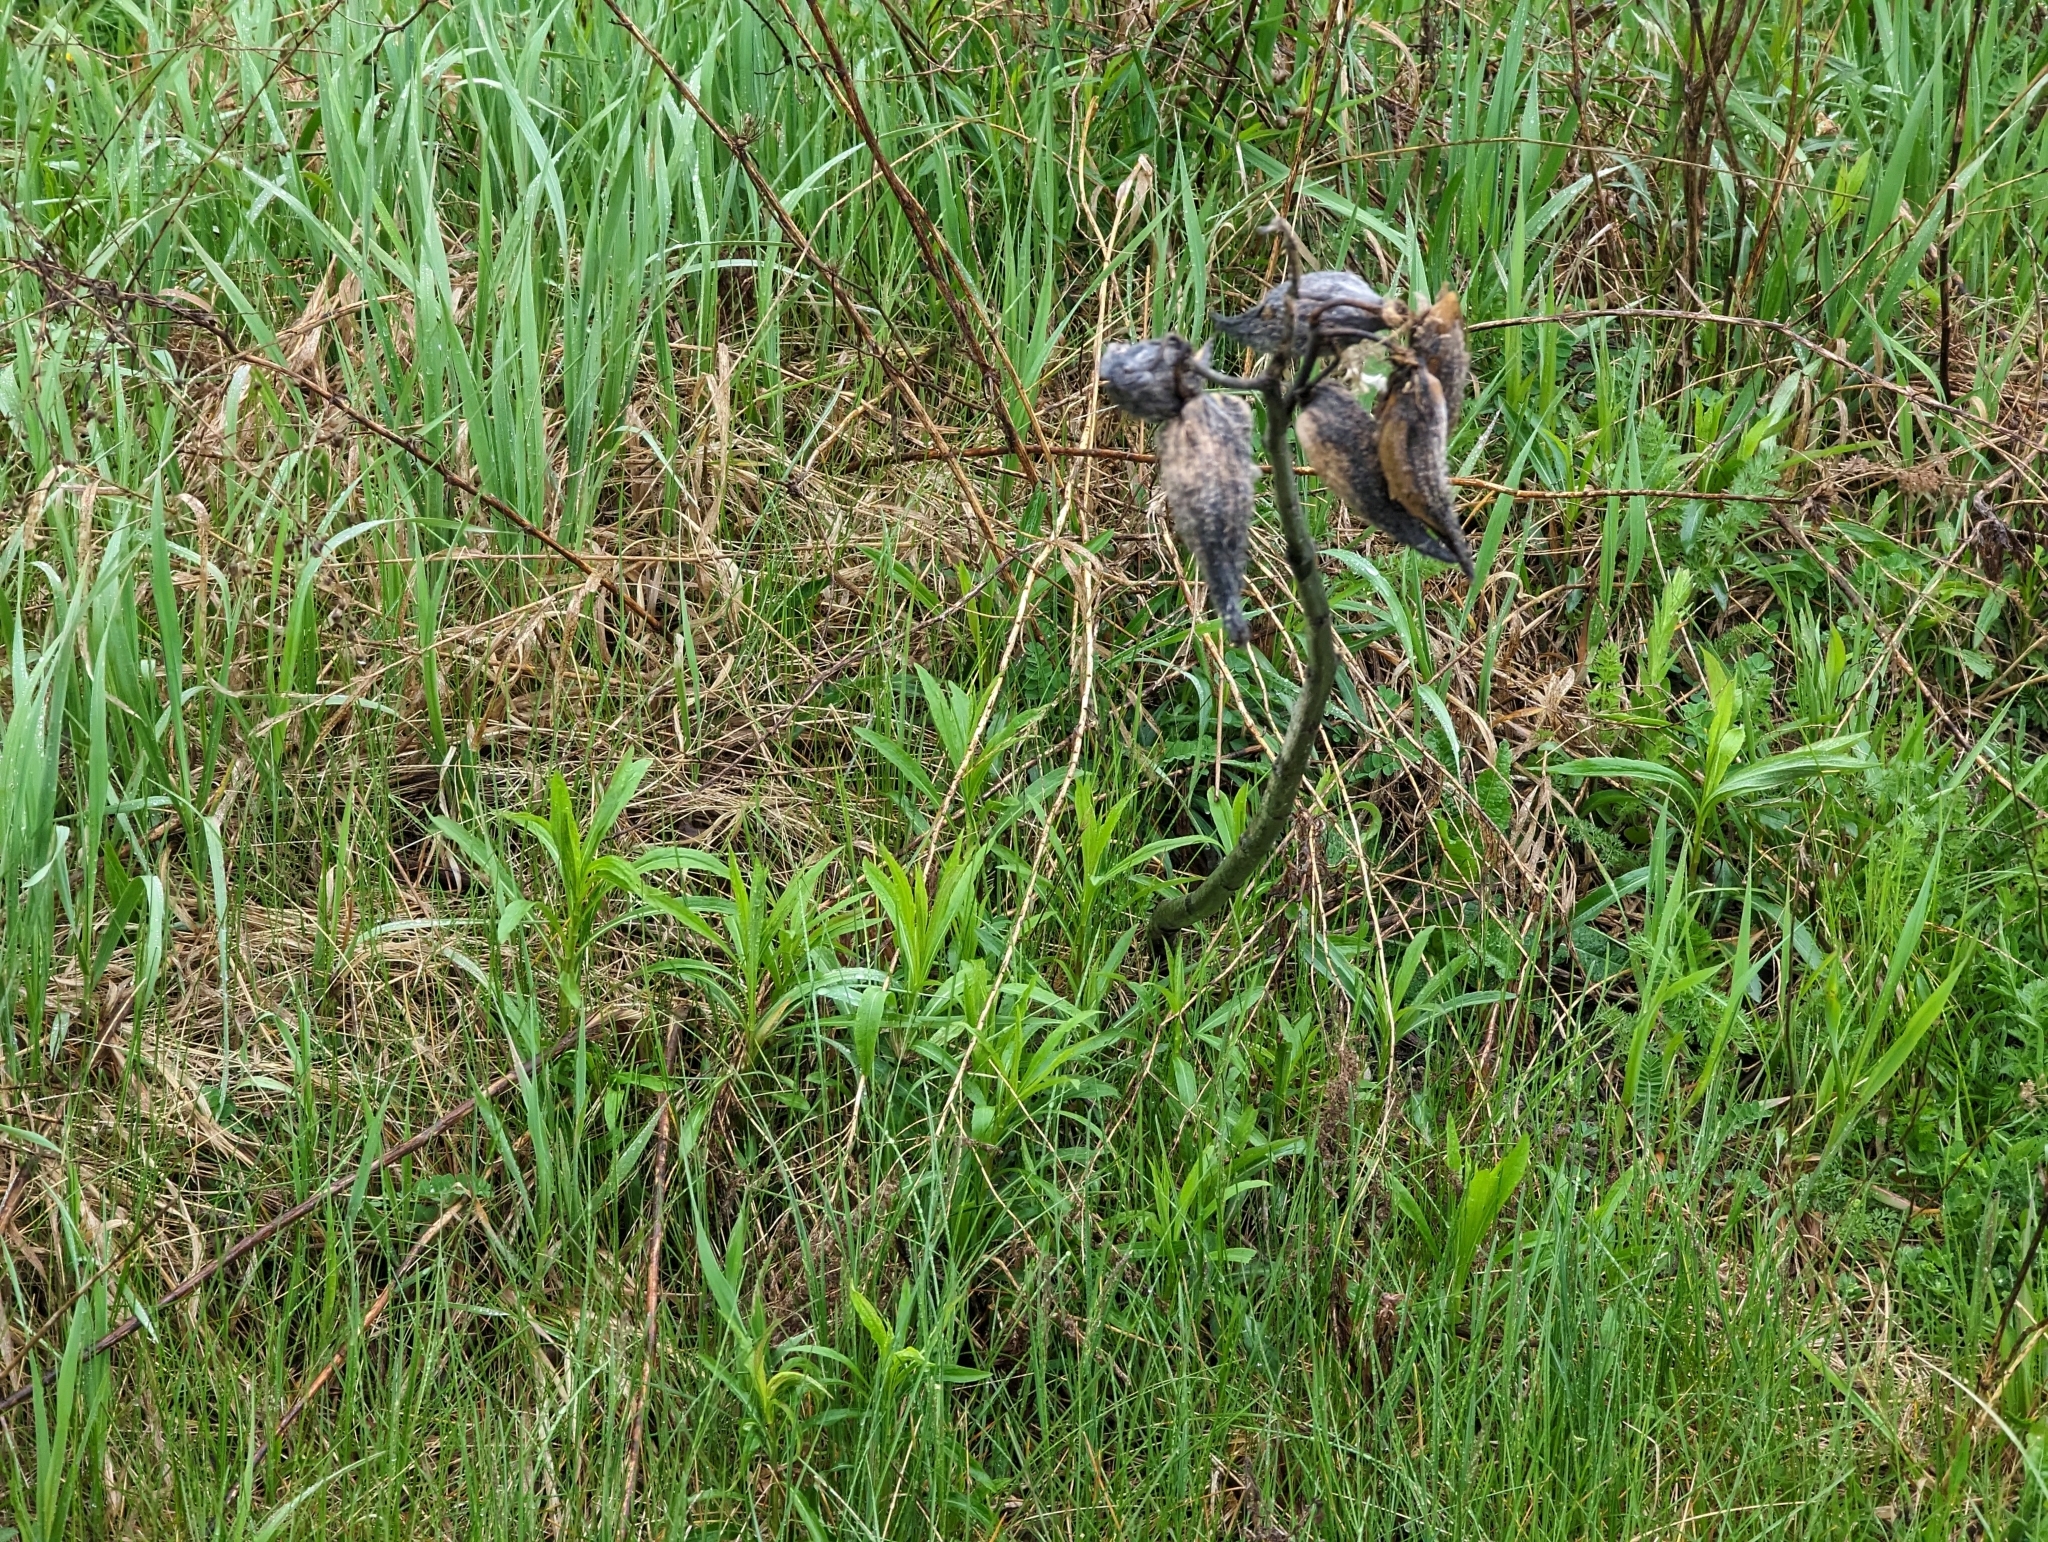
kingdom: Plantae
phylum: Tracheophyta
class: Magnoliopsida
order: Gentianales
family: Apocynaceae
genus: Asclepias
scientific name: Asclepias syriaca
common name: Common milkweed
